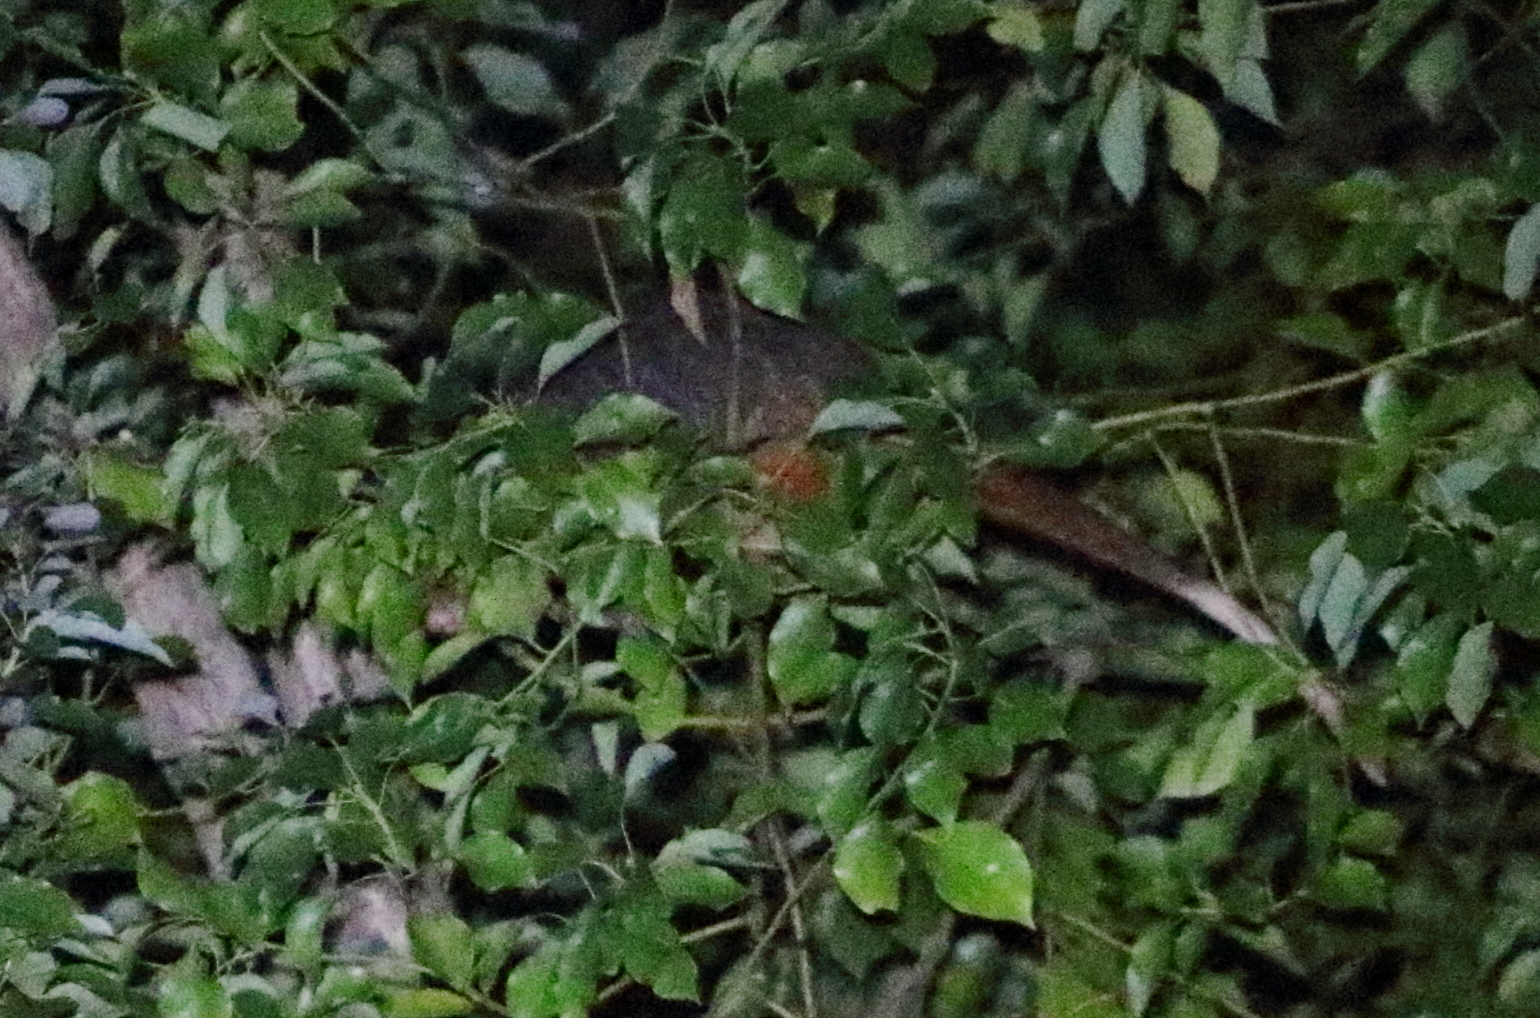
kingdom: Animalia
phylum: Chordata
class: Mammalia
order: Diprotodontia
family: Pseudocheiridae
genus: Pseudocheirus
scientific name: Pseudocheirus peregrinus
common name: Common ringtail possum
